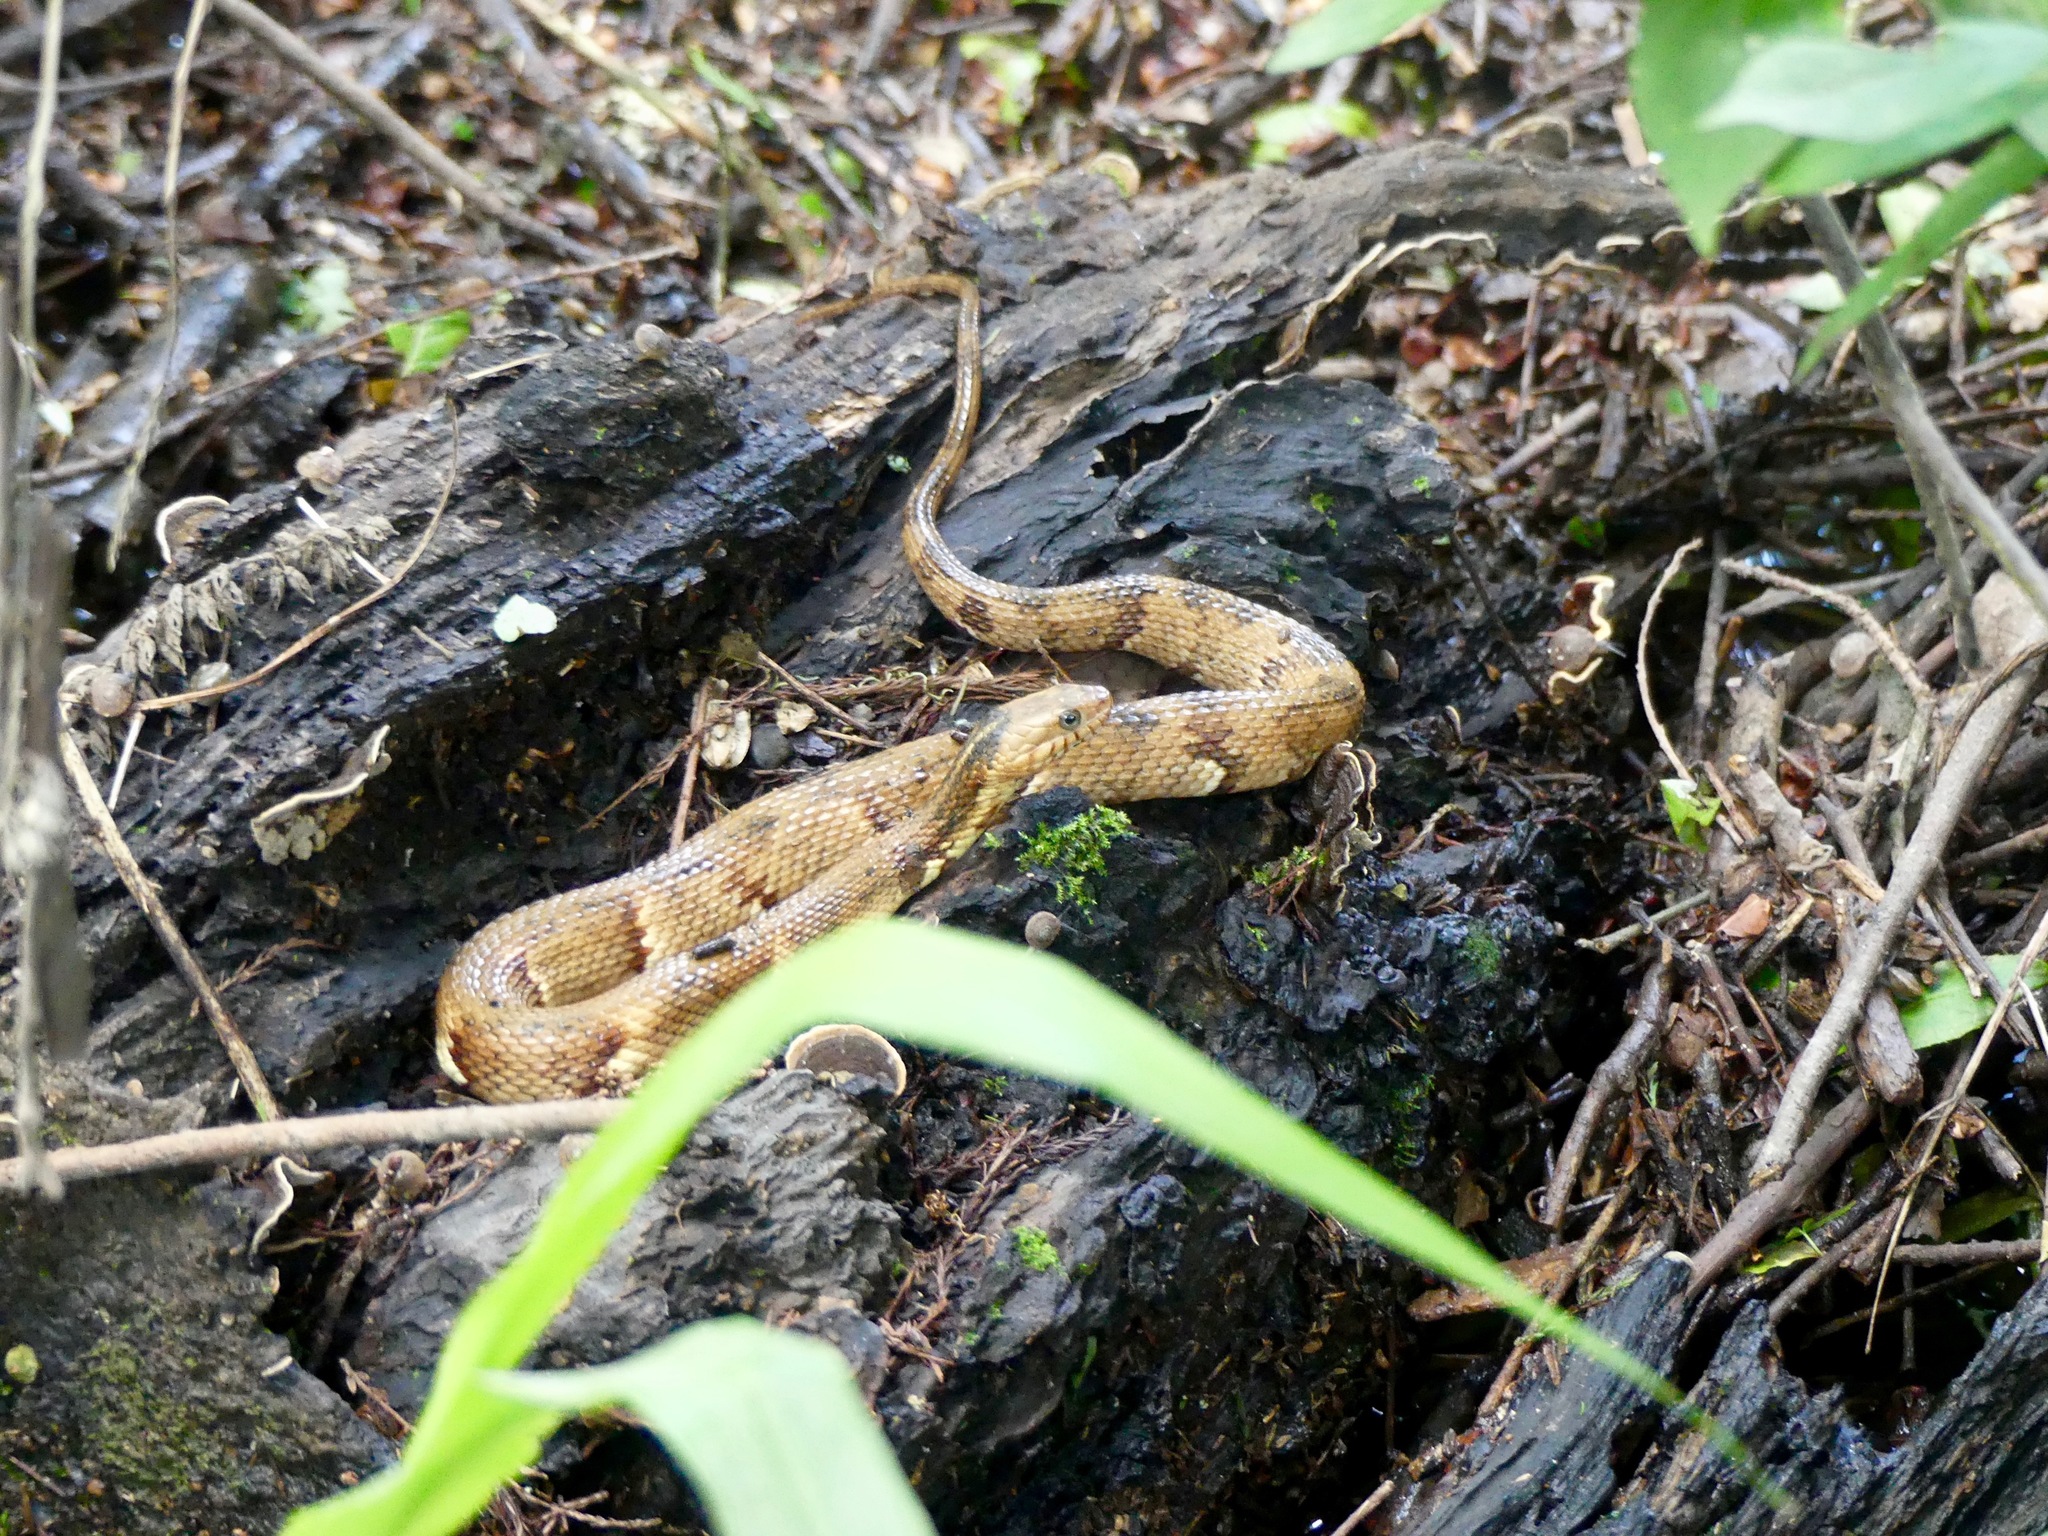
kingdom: Animalia
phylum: Chordata
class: Squamata
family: Colubridae
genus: Nerodia
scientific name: Nerodia fasciata
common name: Southern water snake
